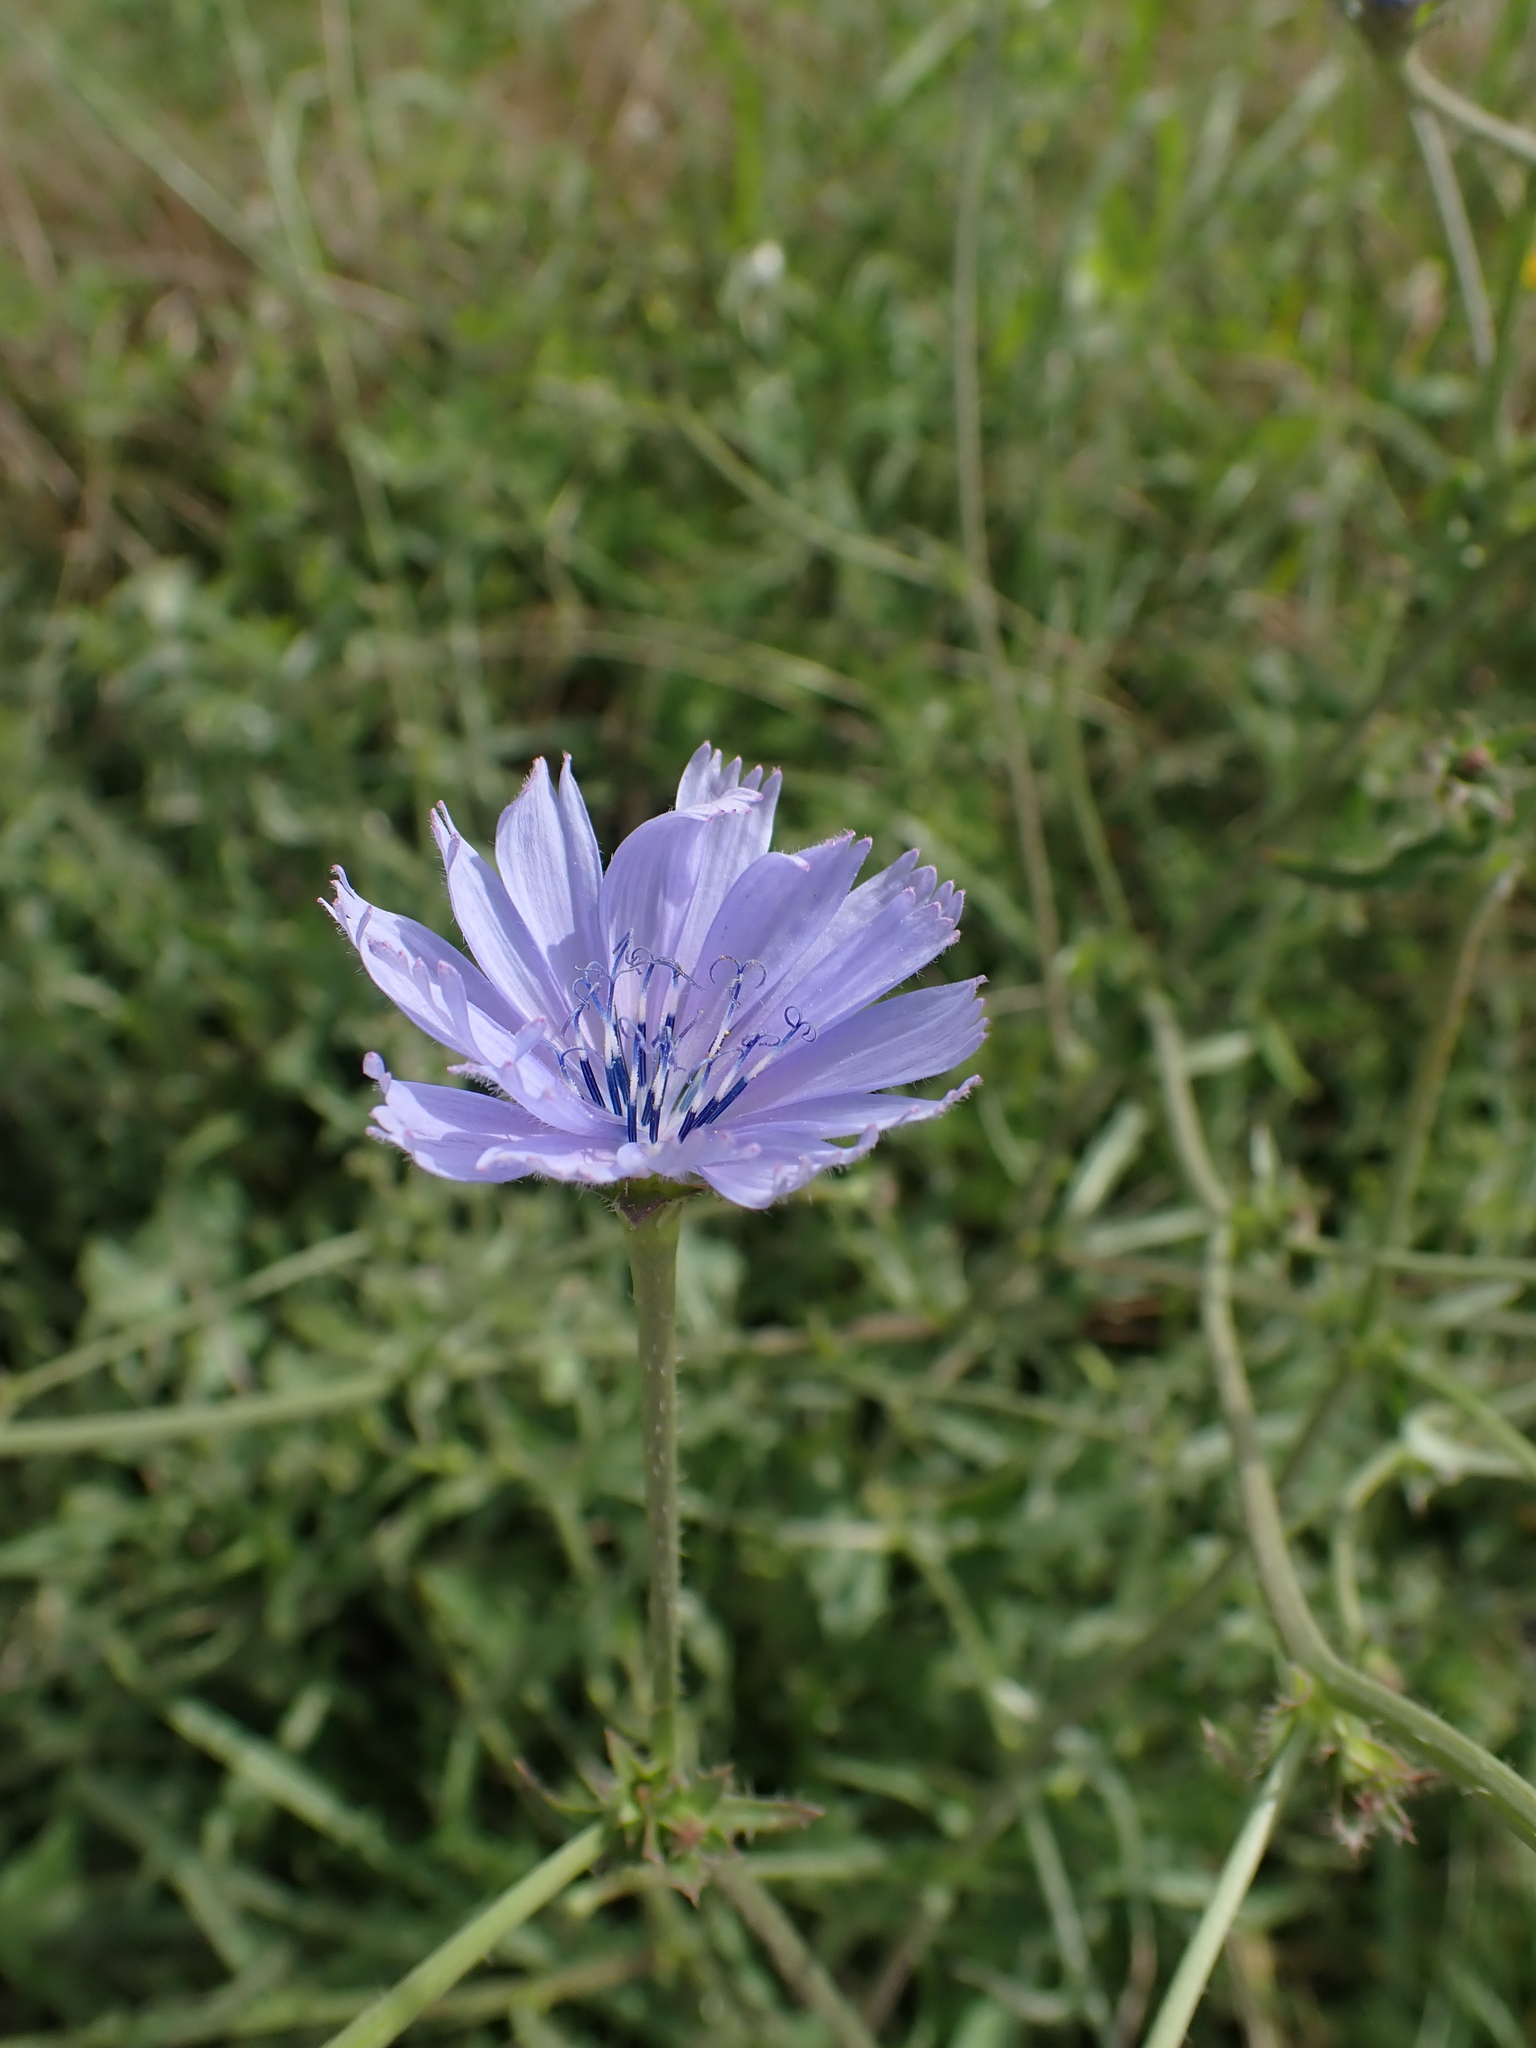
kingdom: Plantae
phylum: Tracheophyta
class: Magnoliopsida
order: Asterales
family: Asteraceae
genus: Cichorium
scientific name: Cichorium intybus
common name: Chicory
